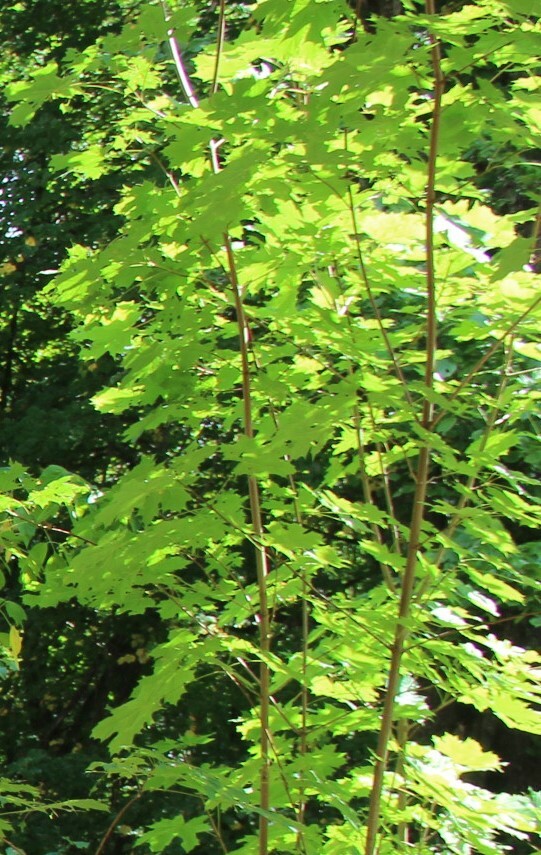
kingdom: Plantae
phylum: Tracheophyta
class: Magnoliopsida
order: Sapindales
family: Sapindaceae
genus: Acer
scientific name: Acer platanoides
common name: Norway maple
